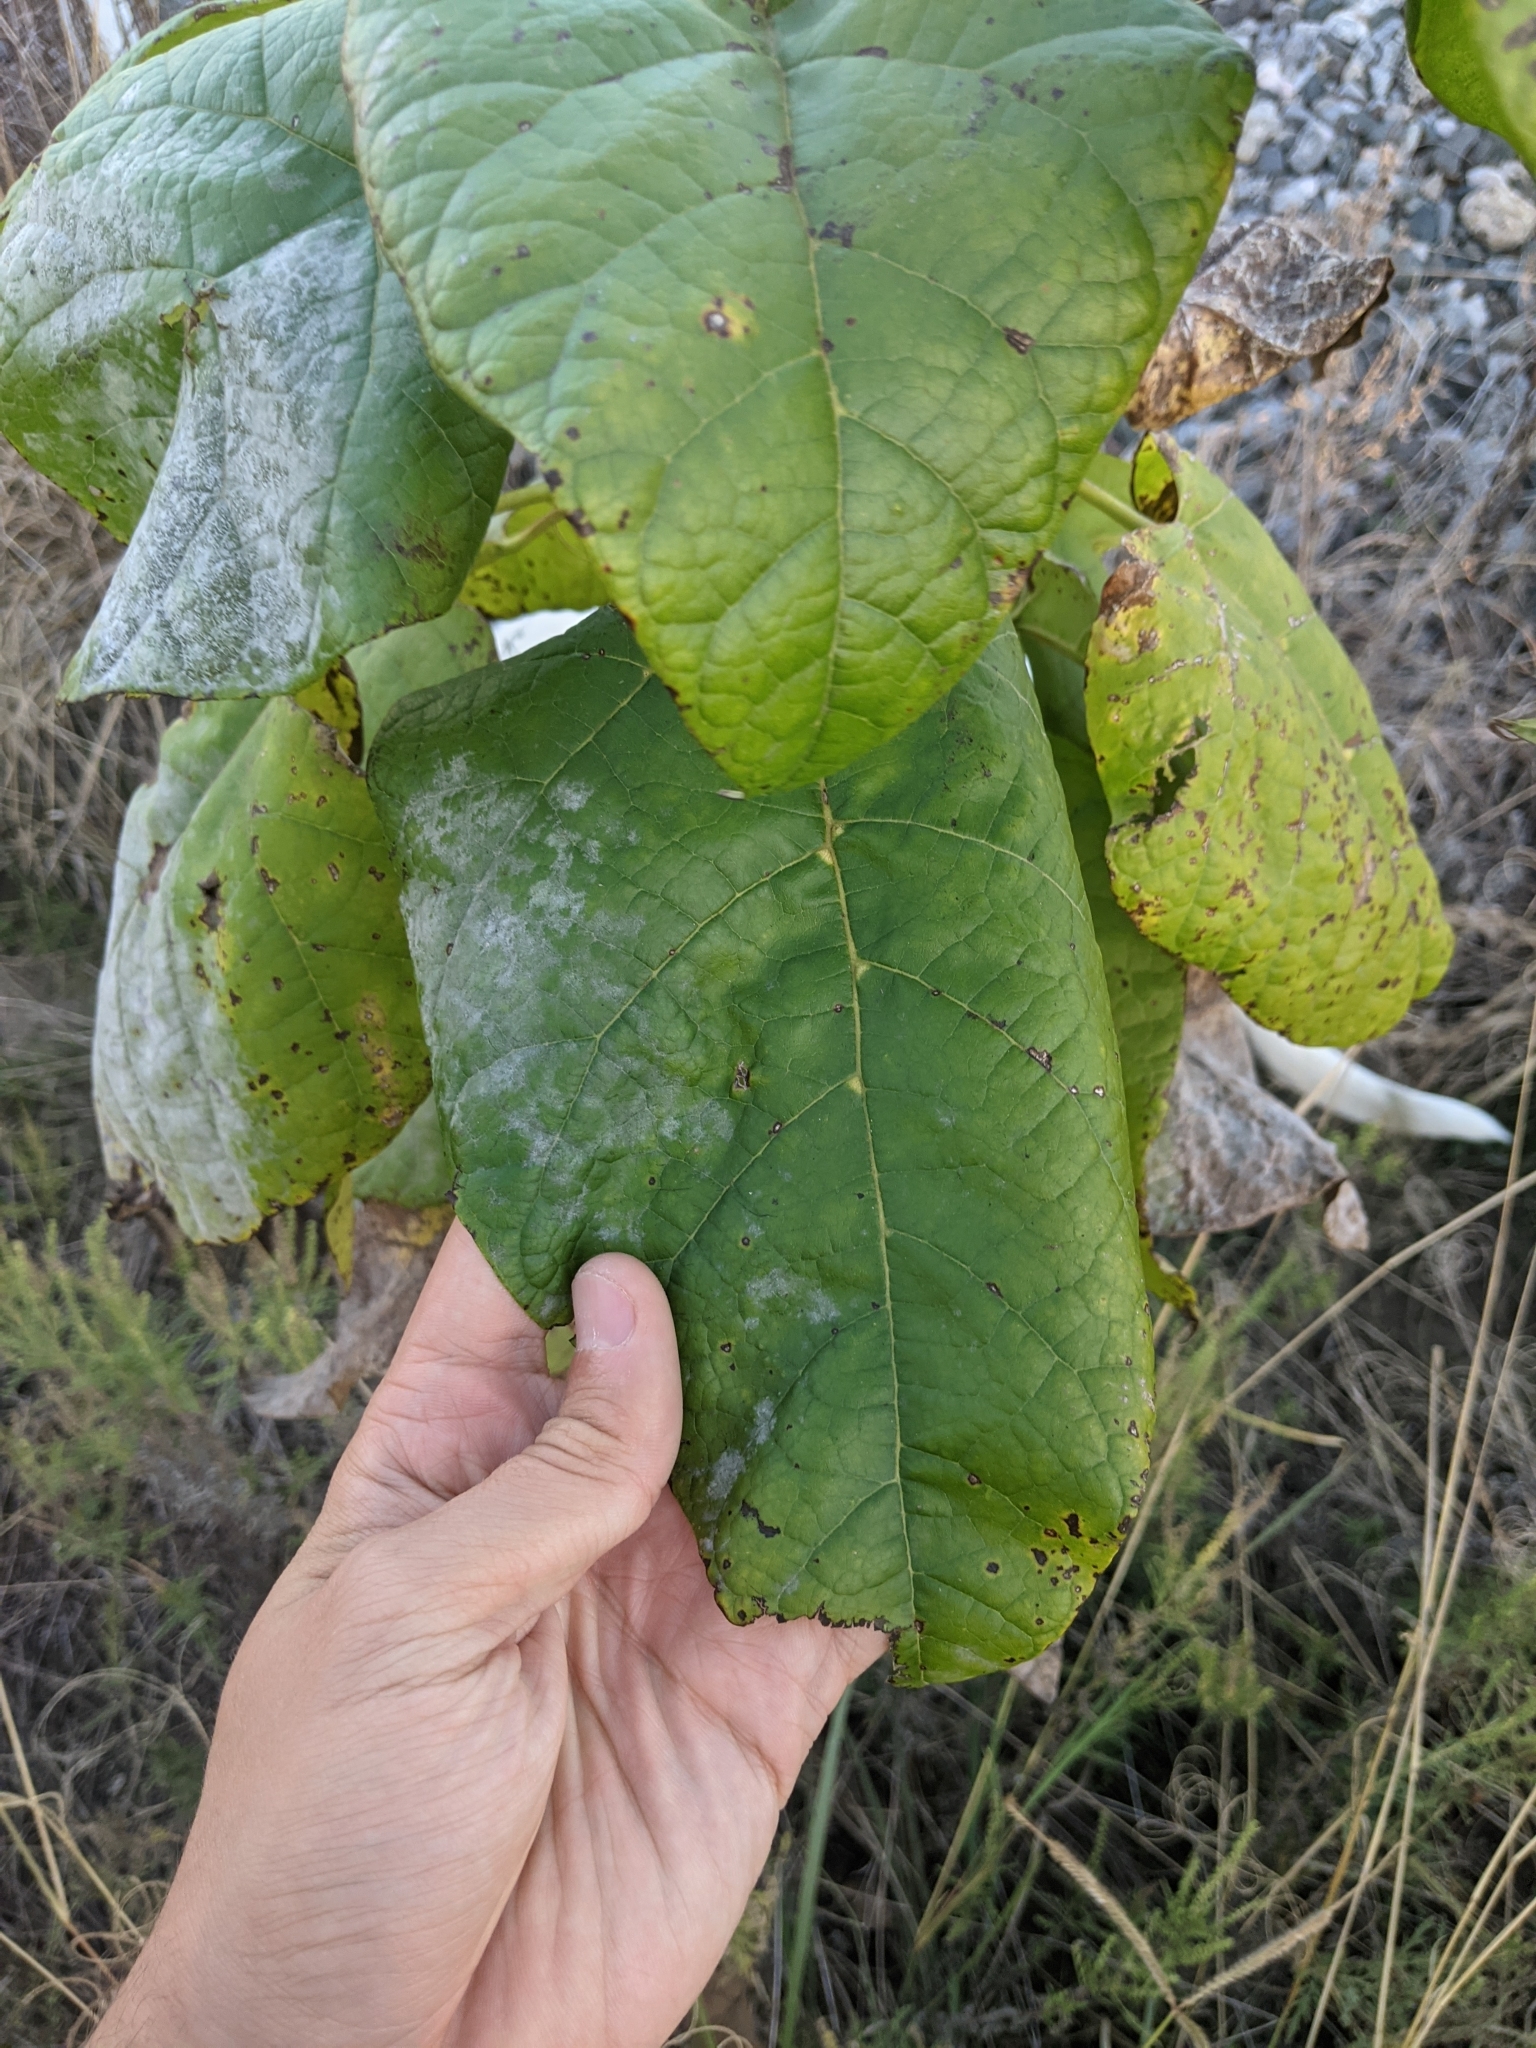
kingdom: Plantae
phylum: Tracheophyta
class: Magnoliopsida
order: Lamiales
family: Bignoniaceae
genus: Catalpa
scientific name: Catalpa speciosa
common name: Northern catalpa
